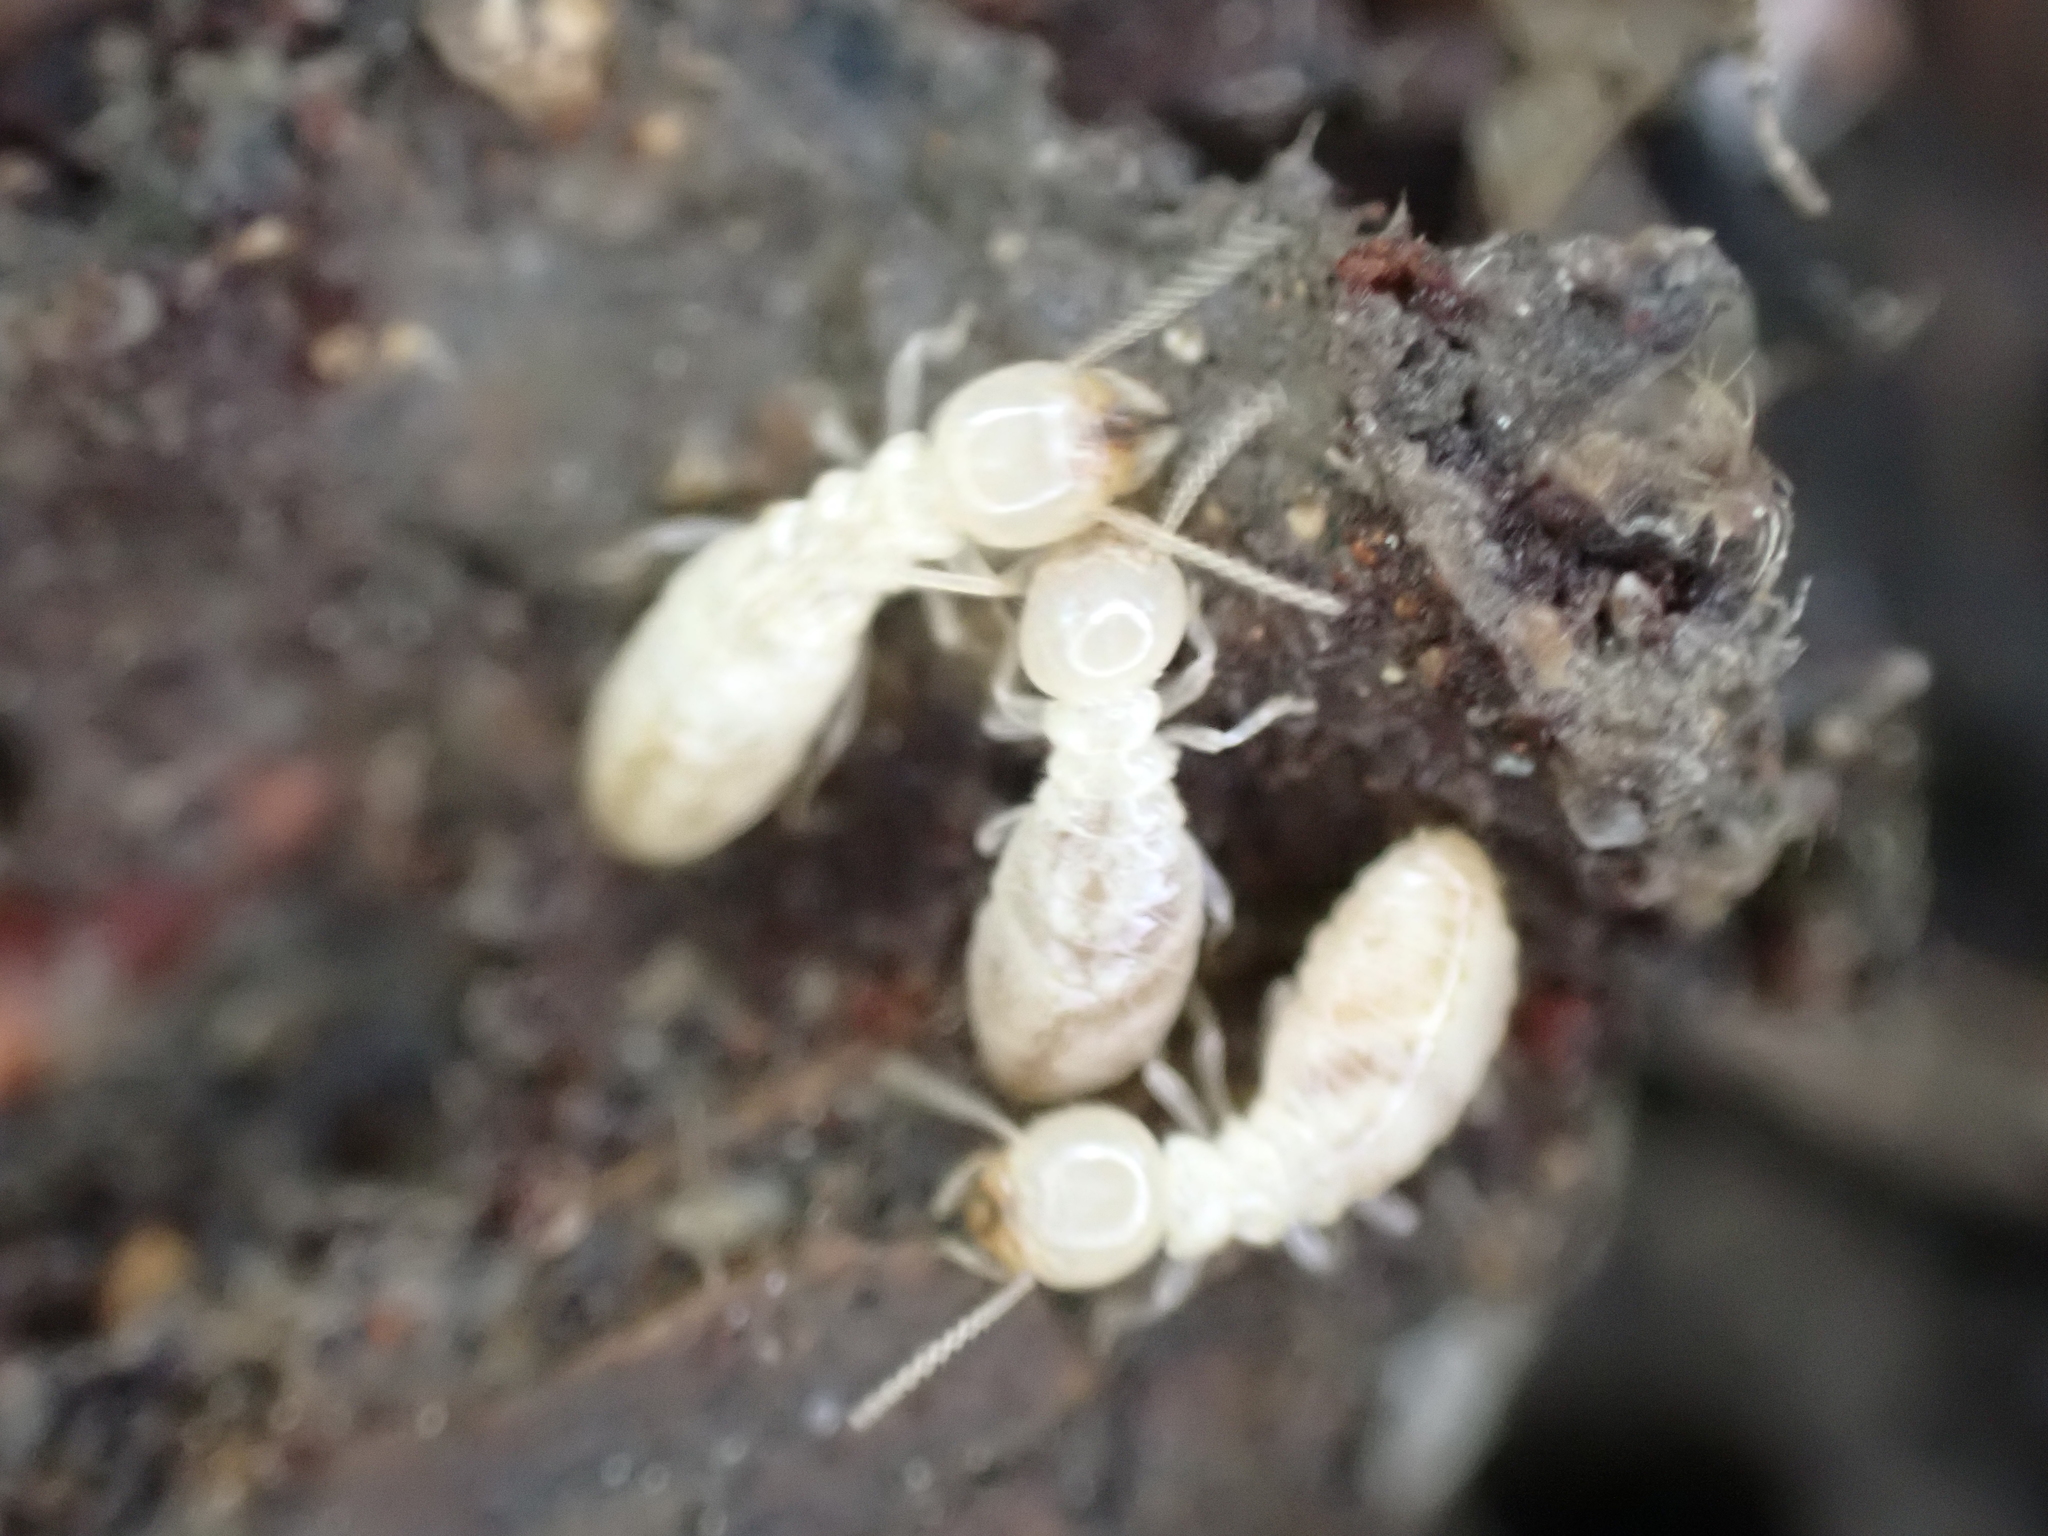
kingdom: Animalia
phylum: Arthropoda
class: Insecta
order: Blattodea
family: Rhinotermitidae
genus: Reticulitermes
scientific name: Reticulitermes flavipes
